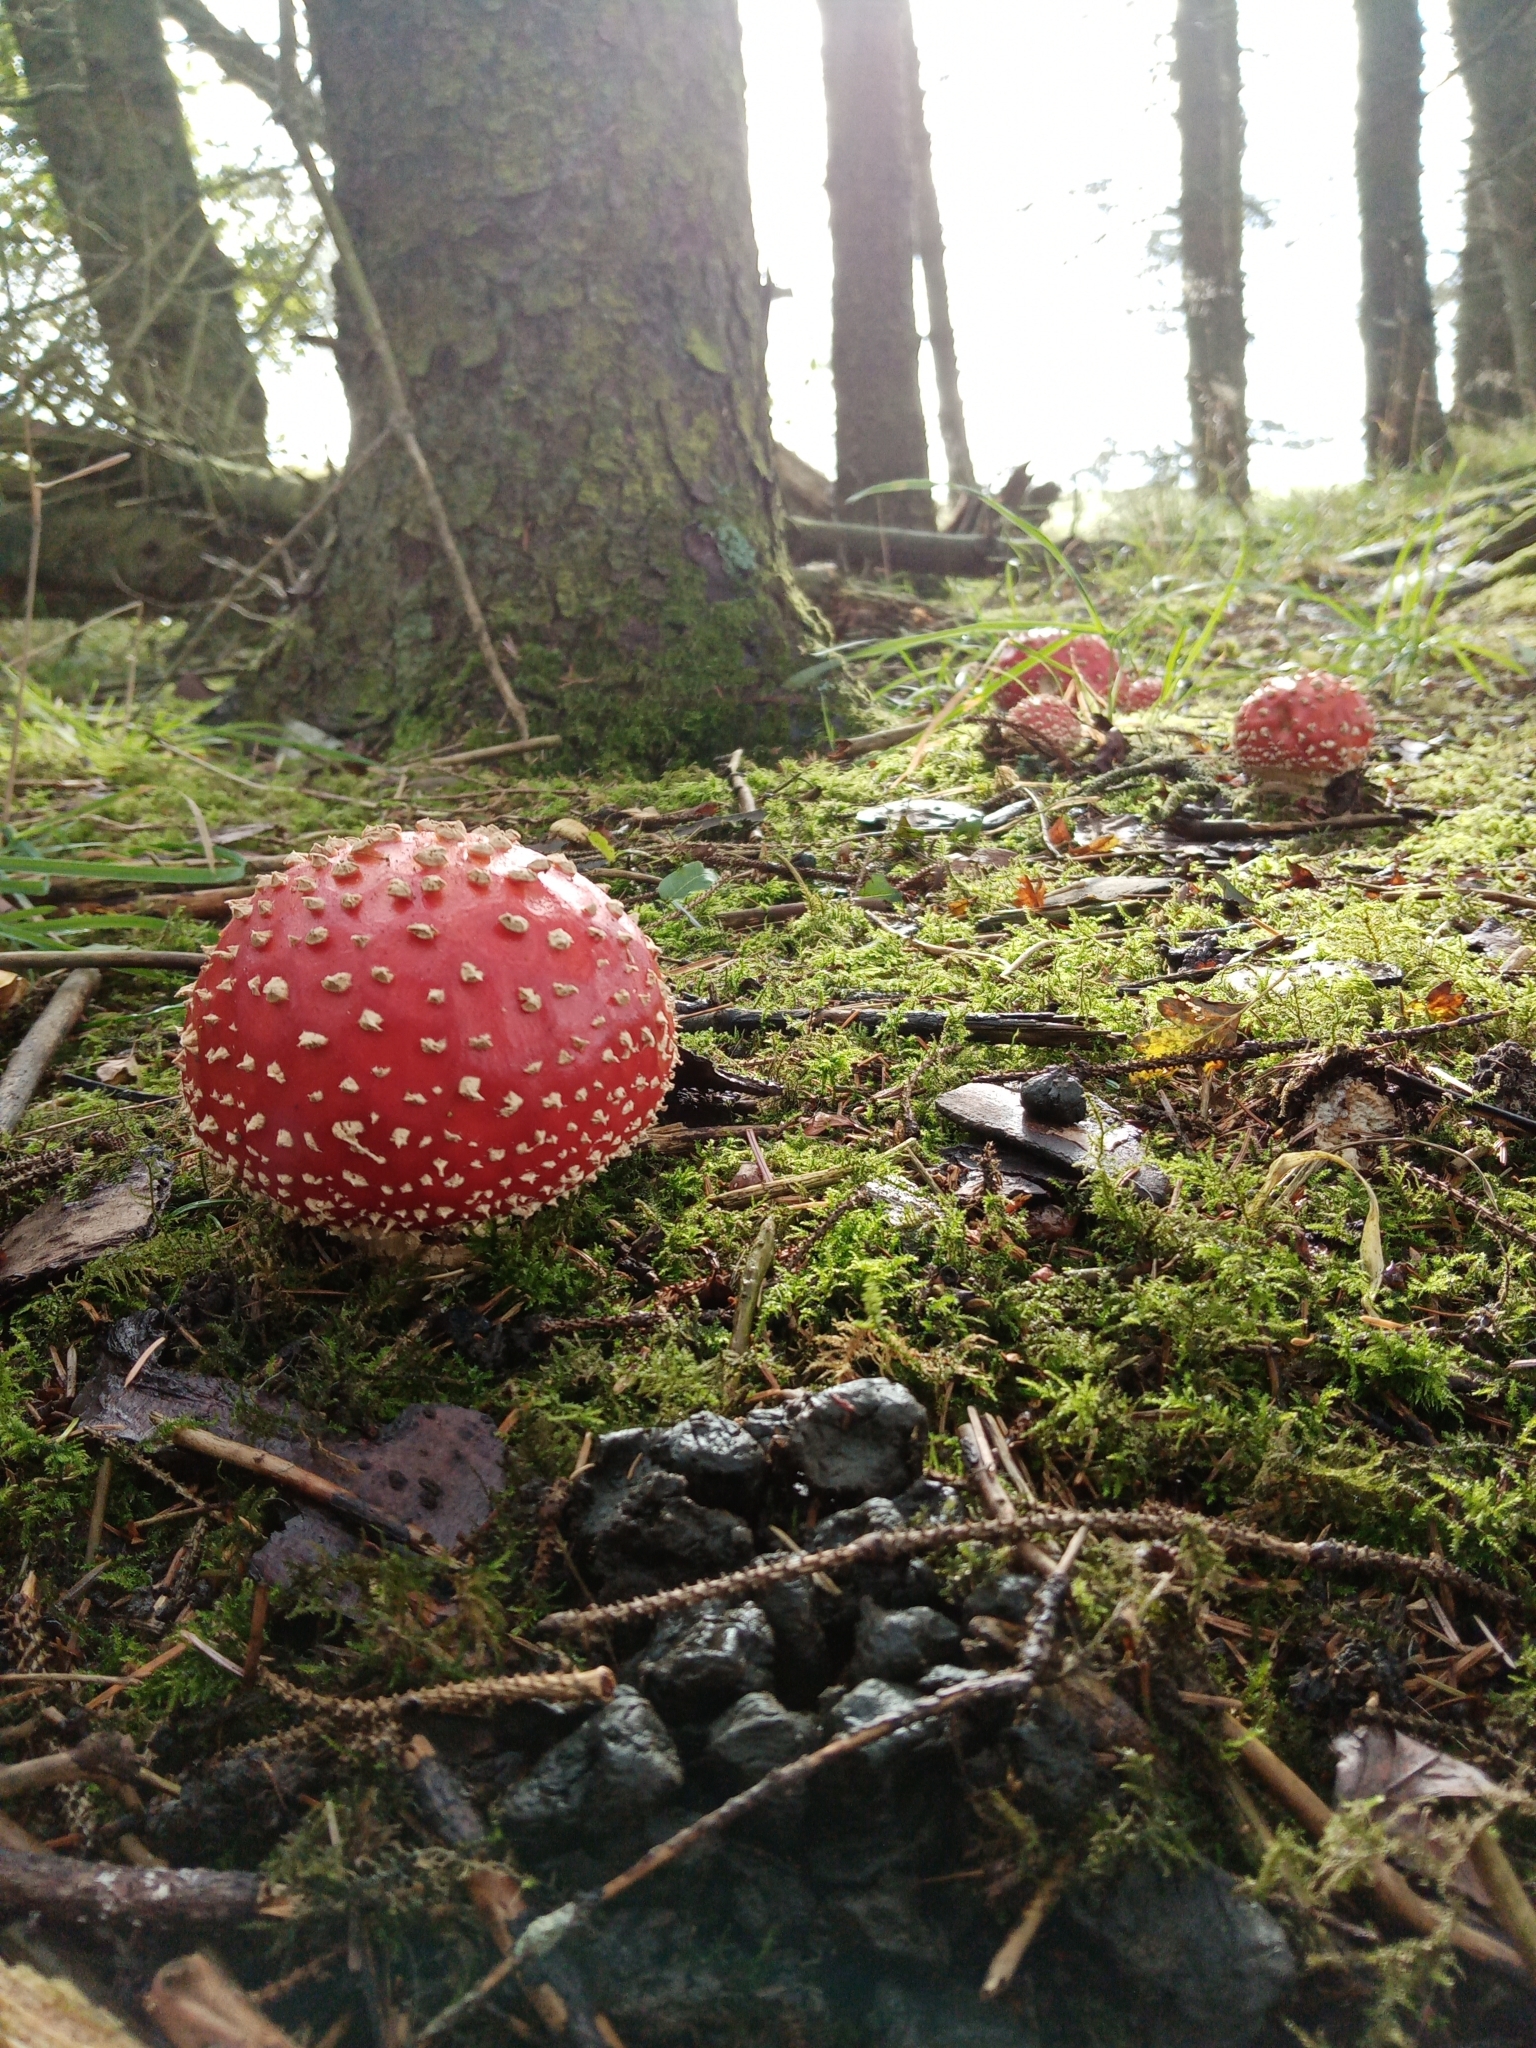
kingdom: Fungi
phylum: Basidiomycota
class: Agaricomycetes
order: Agaricales
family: Amanitaceae
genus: Amanita
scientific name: Amanita muscaria
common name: Fly agaric
